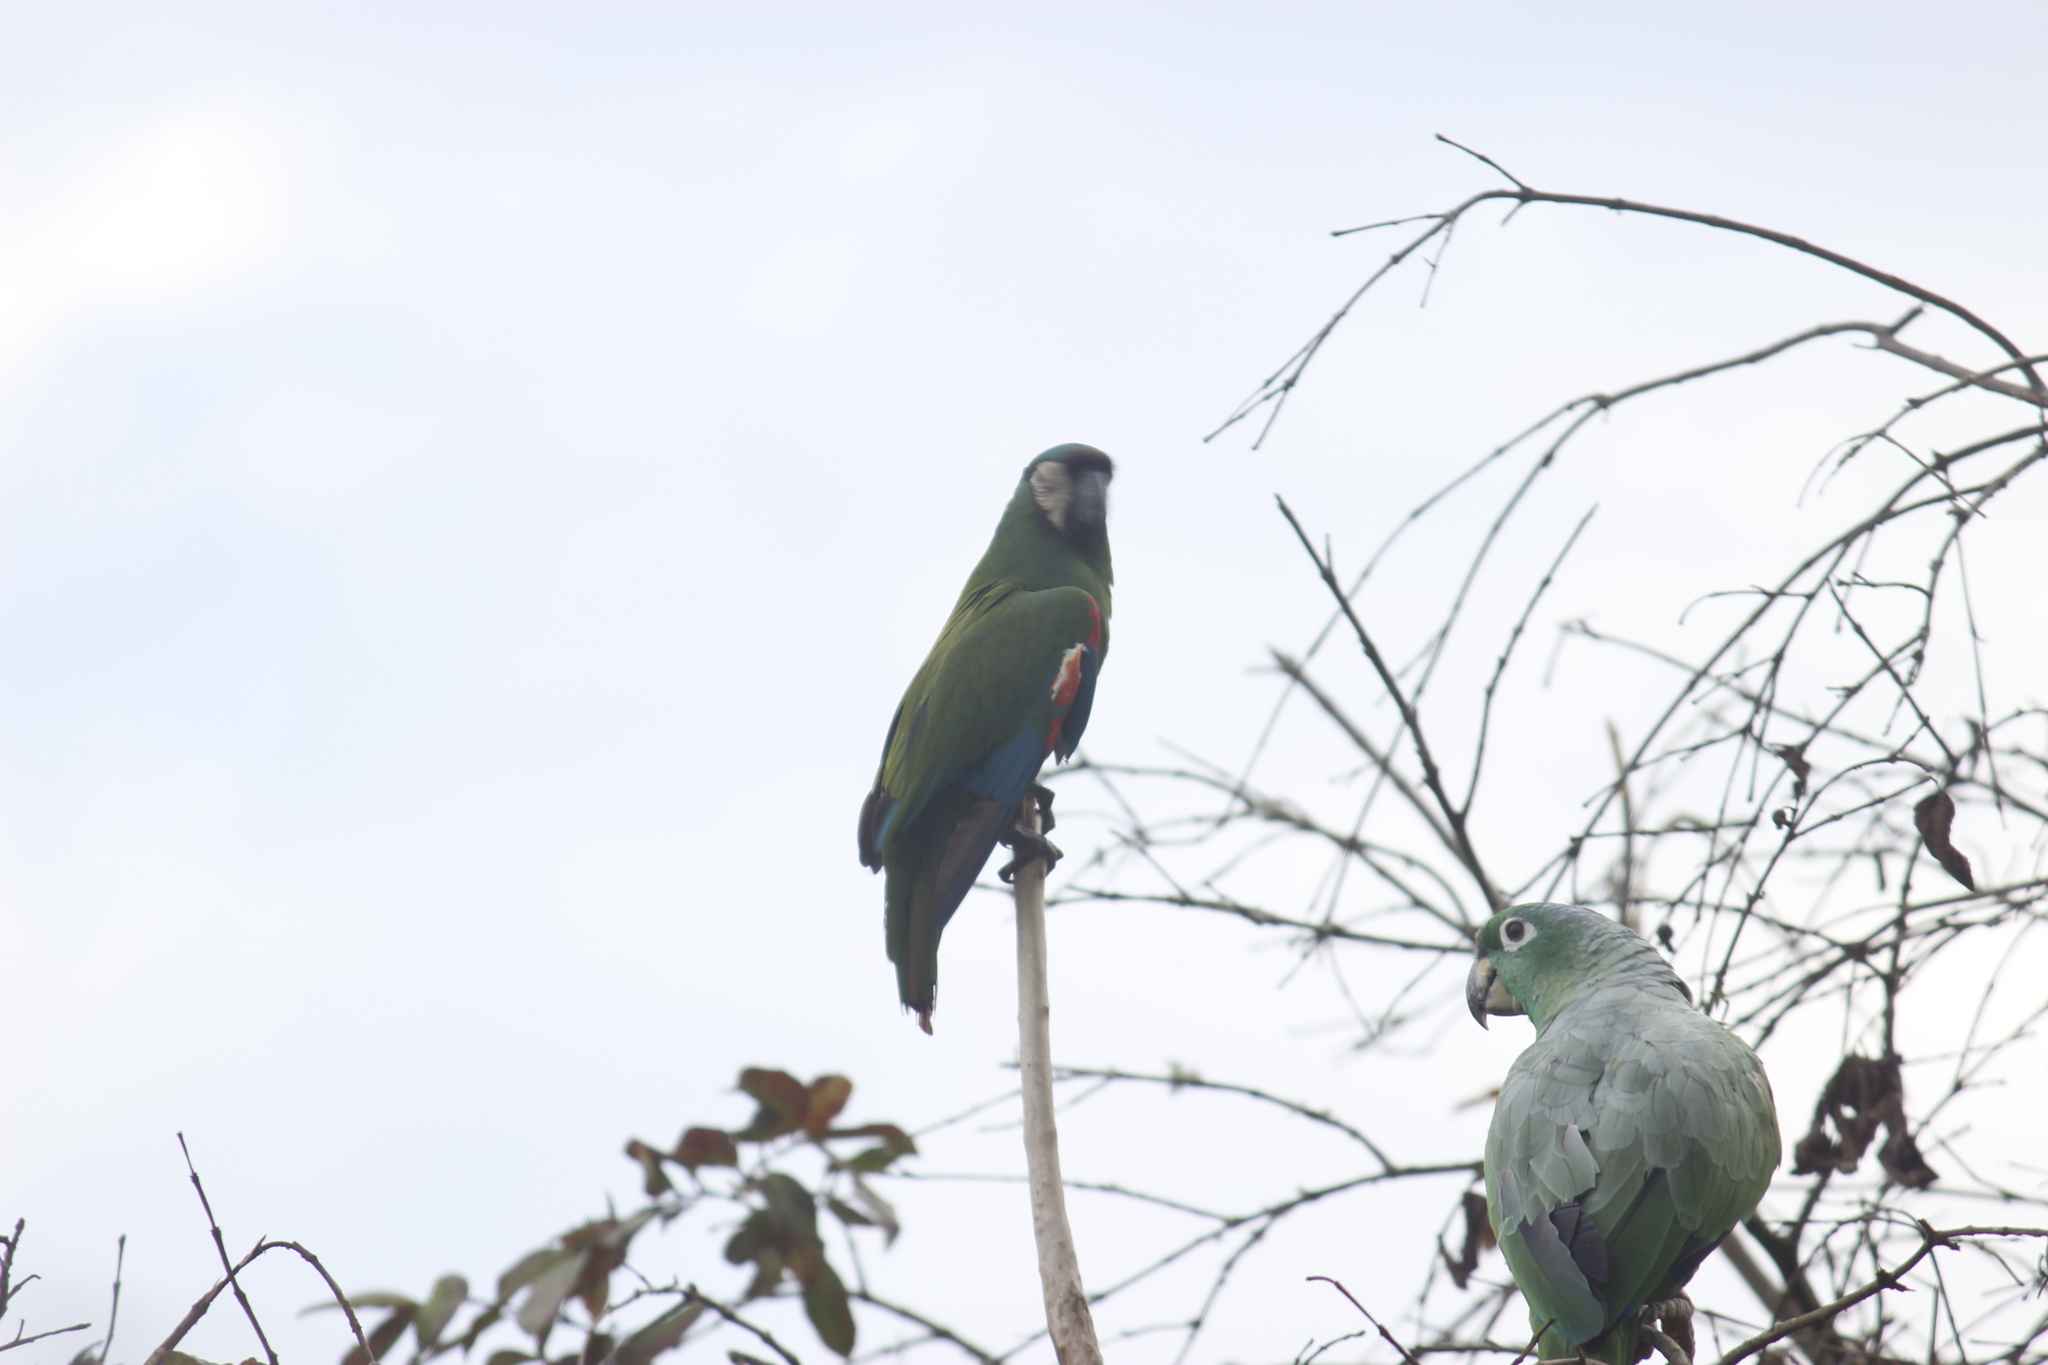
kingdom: Animalia
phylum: Chordata
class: Aves
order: Psittaciformes
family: Psittacidae
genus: Ara
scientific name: Ara severus
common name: Chestnut-fronted macaw
